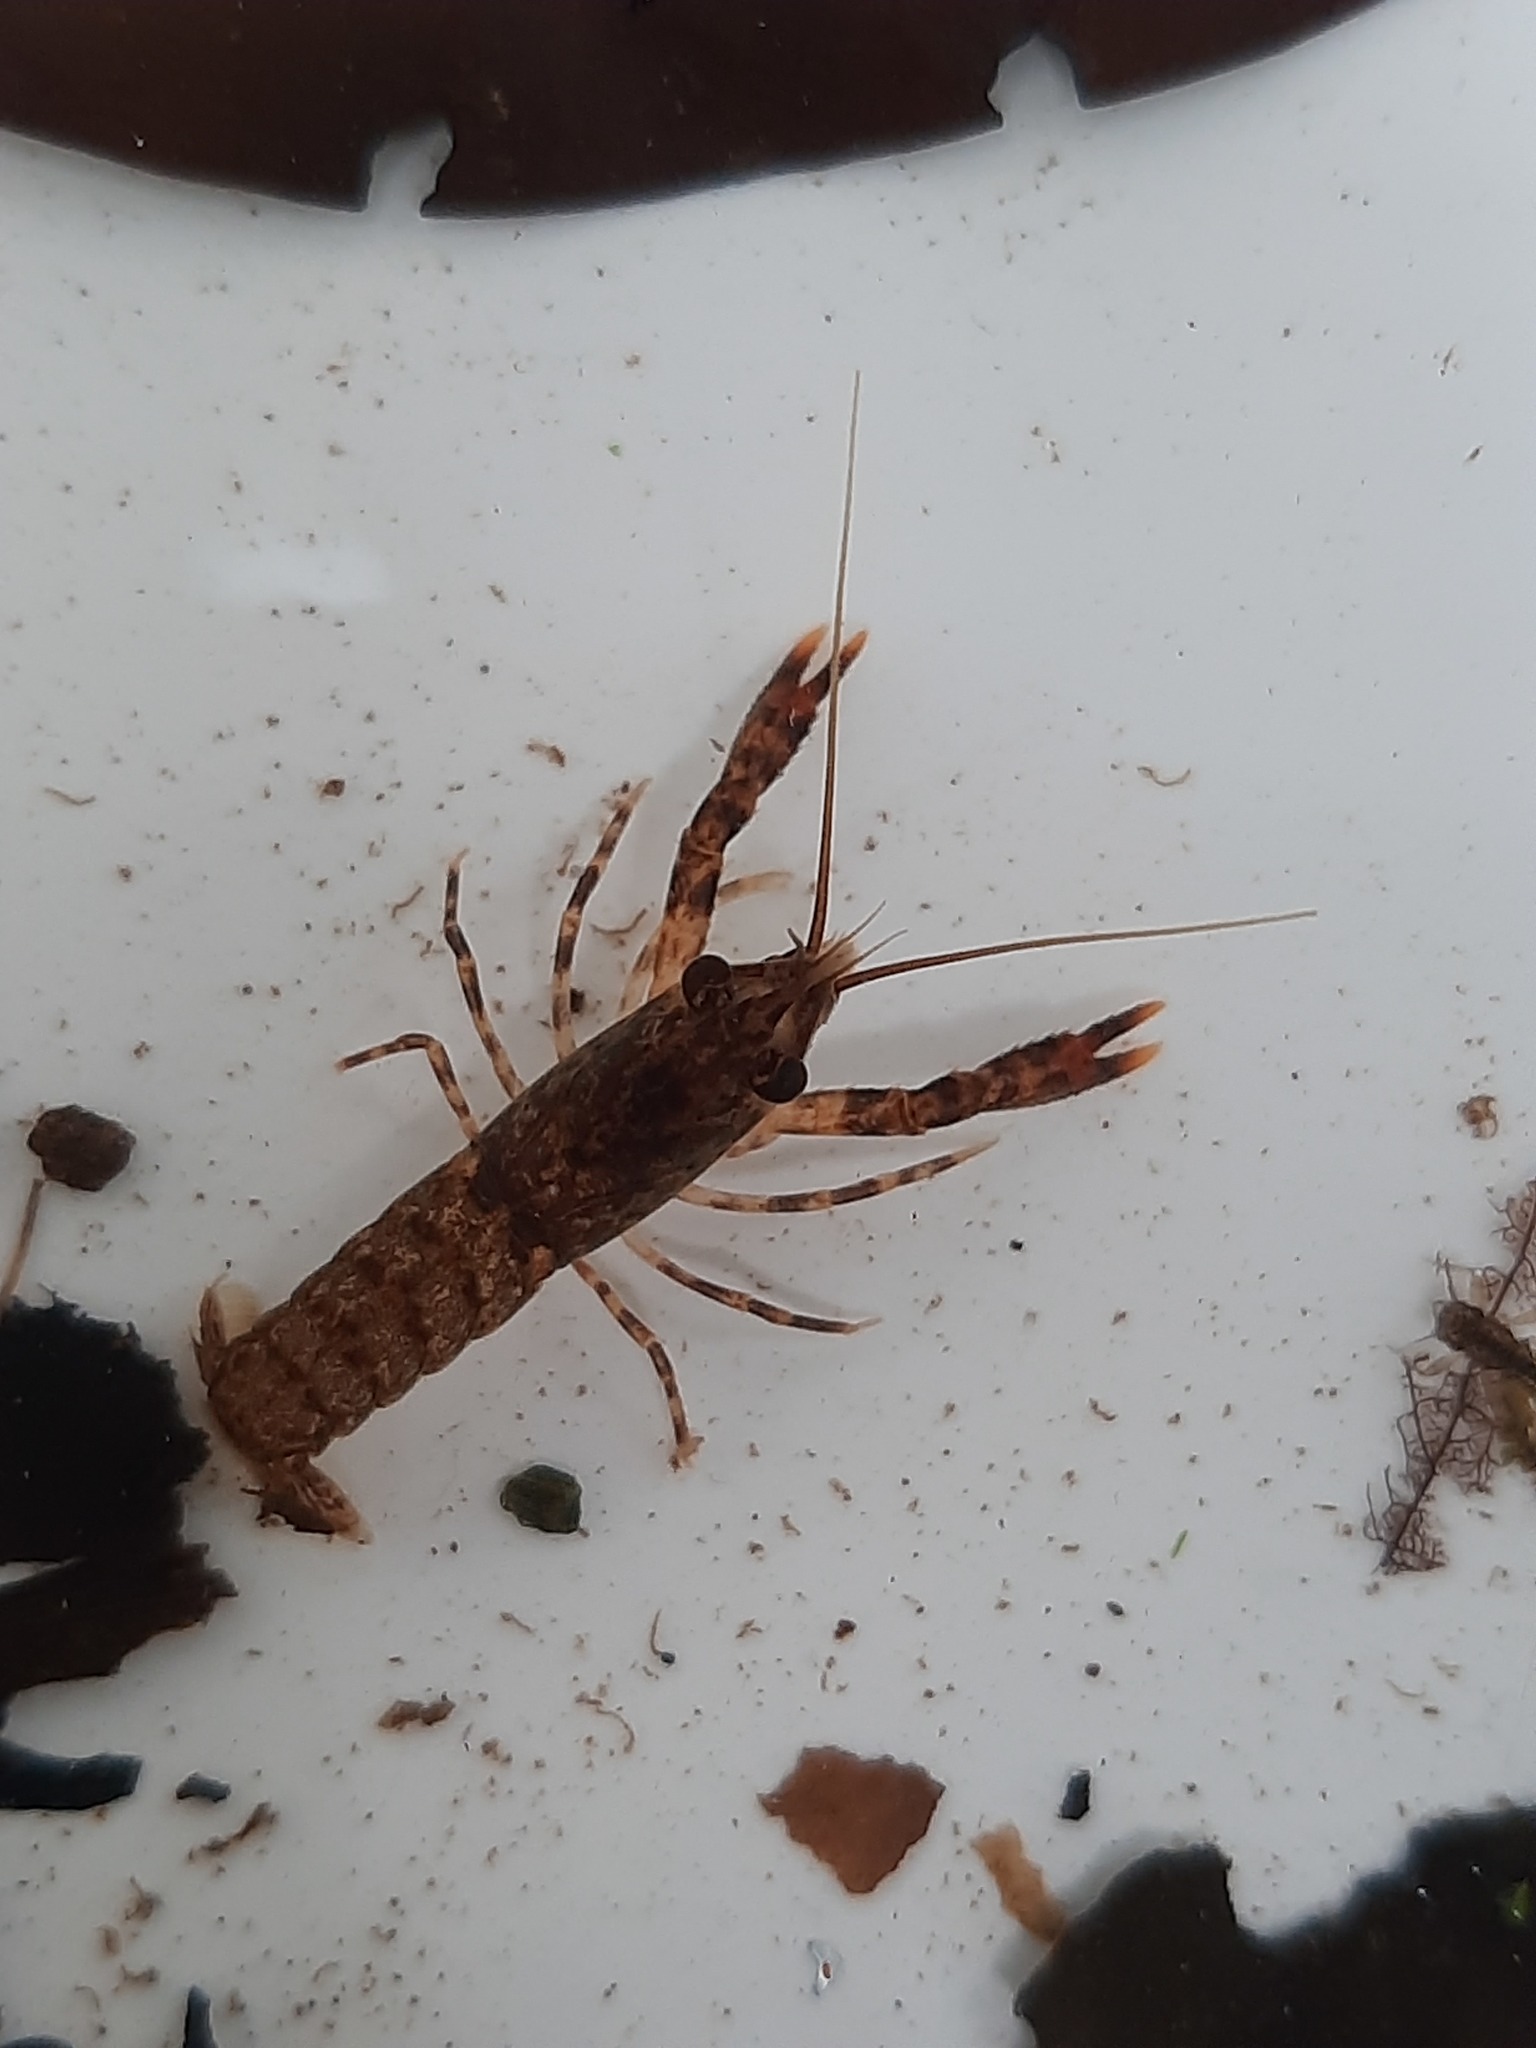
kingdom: Animalia
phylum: Arthropoda
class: Malacostraca
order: Decapoda
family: Parastacidae
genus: Paranephrops
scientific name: Paranephrops planifrons
